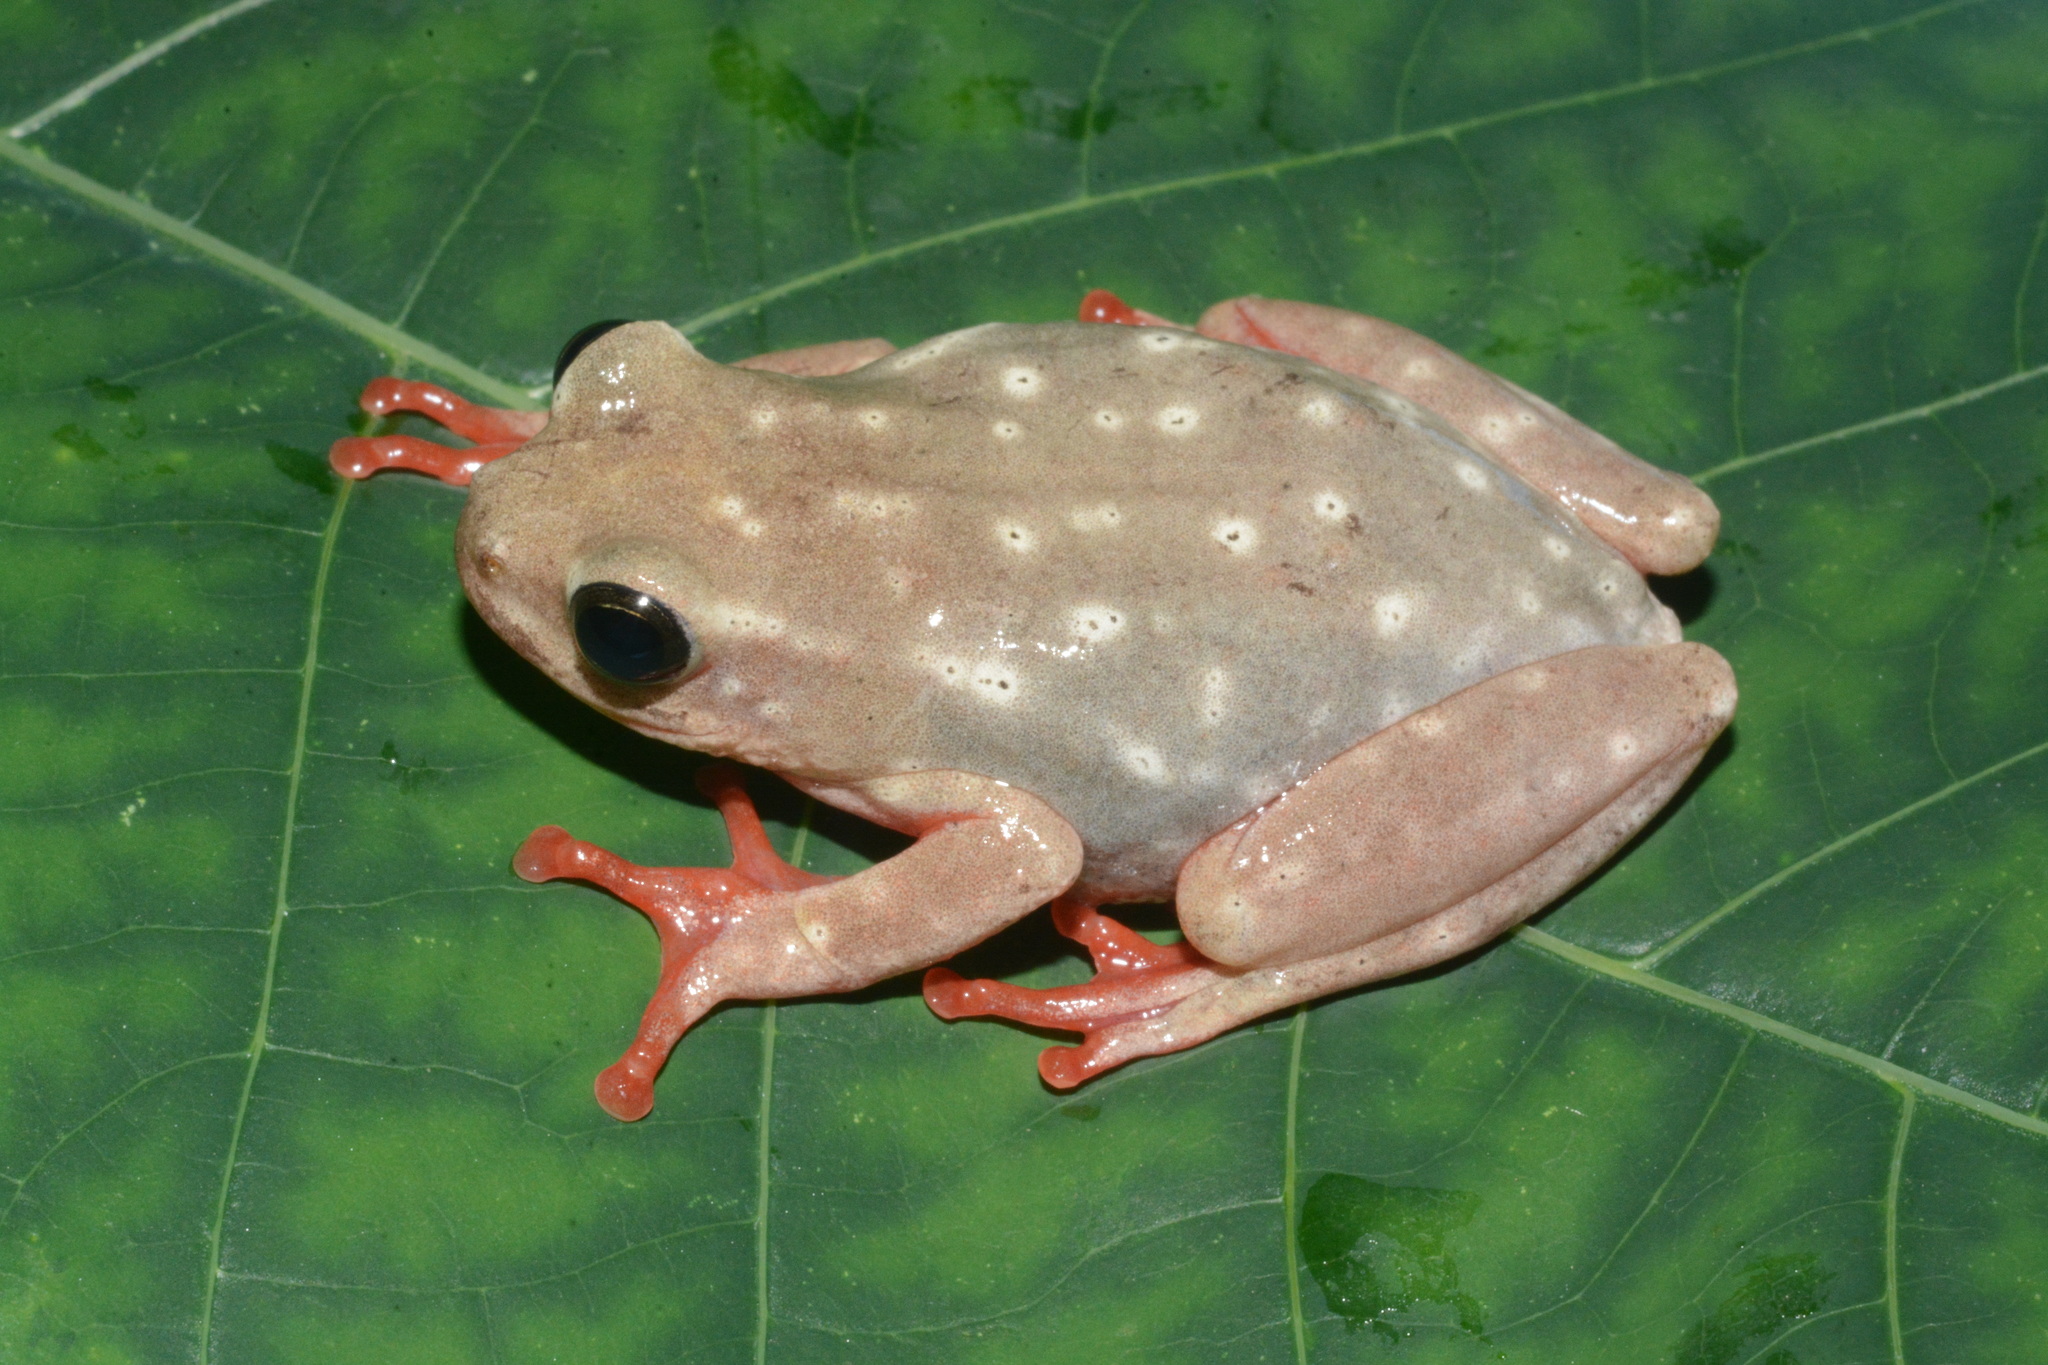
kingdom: Animalia
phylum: Chordata
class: Amphibia
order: Anura
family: Hyperoliidae
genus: Hyperolius
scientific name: Hyperolius viridiflavus
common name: Common reed frog
